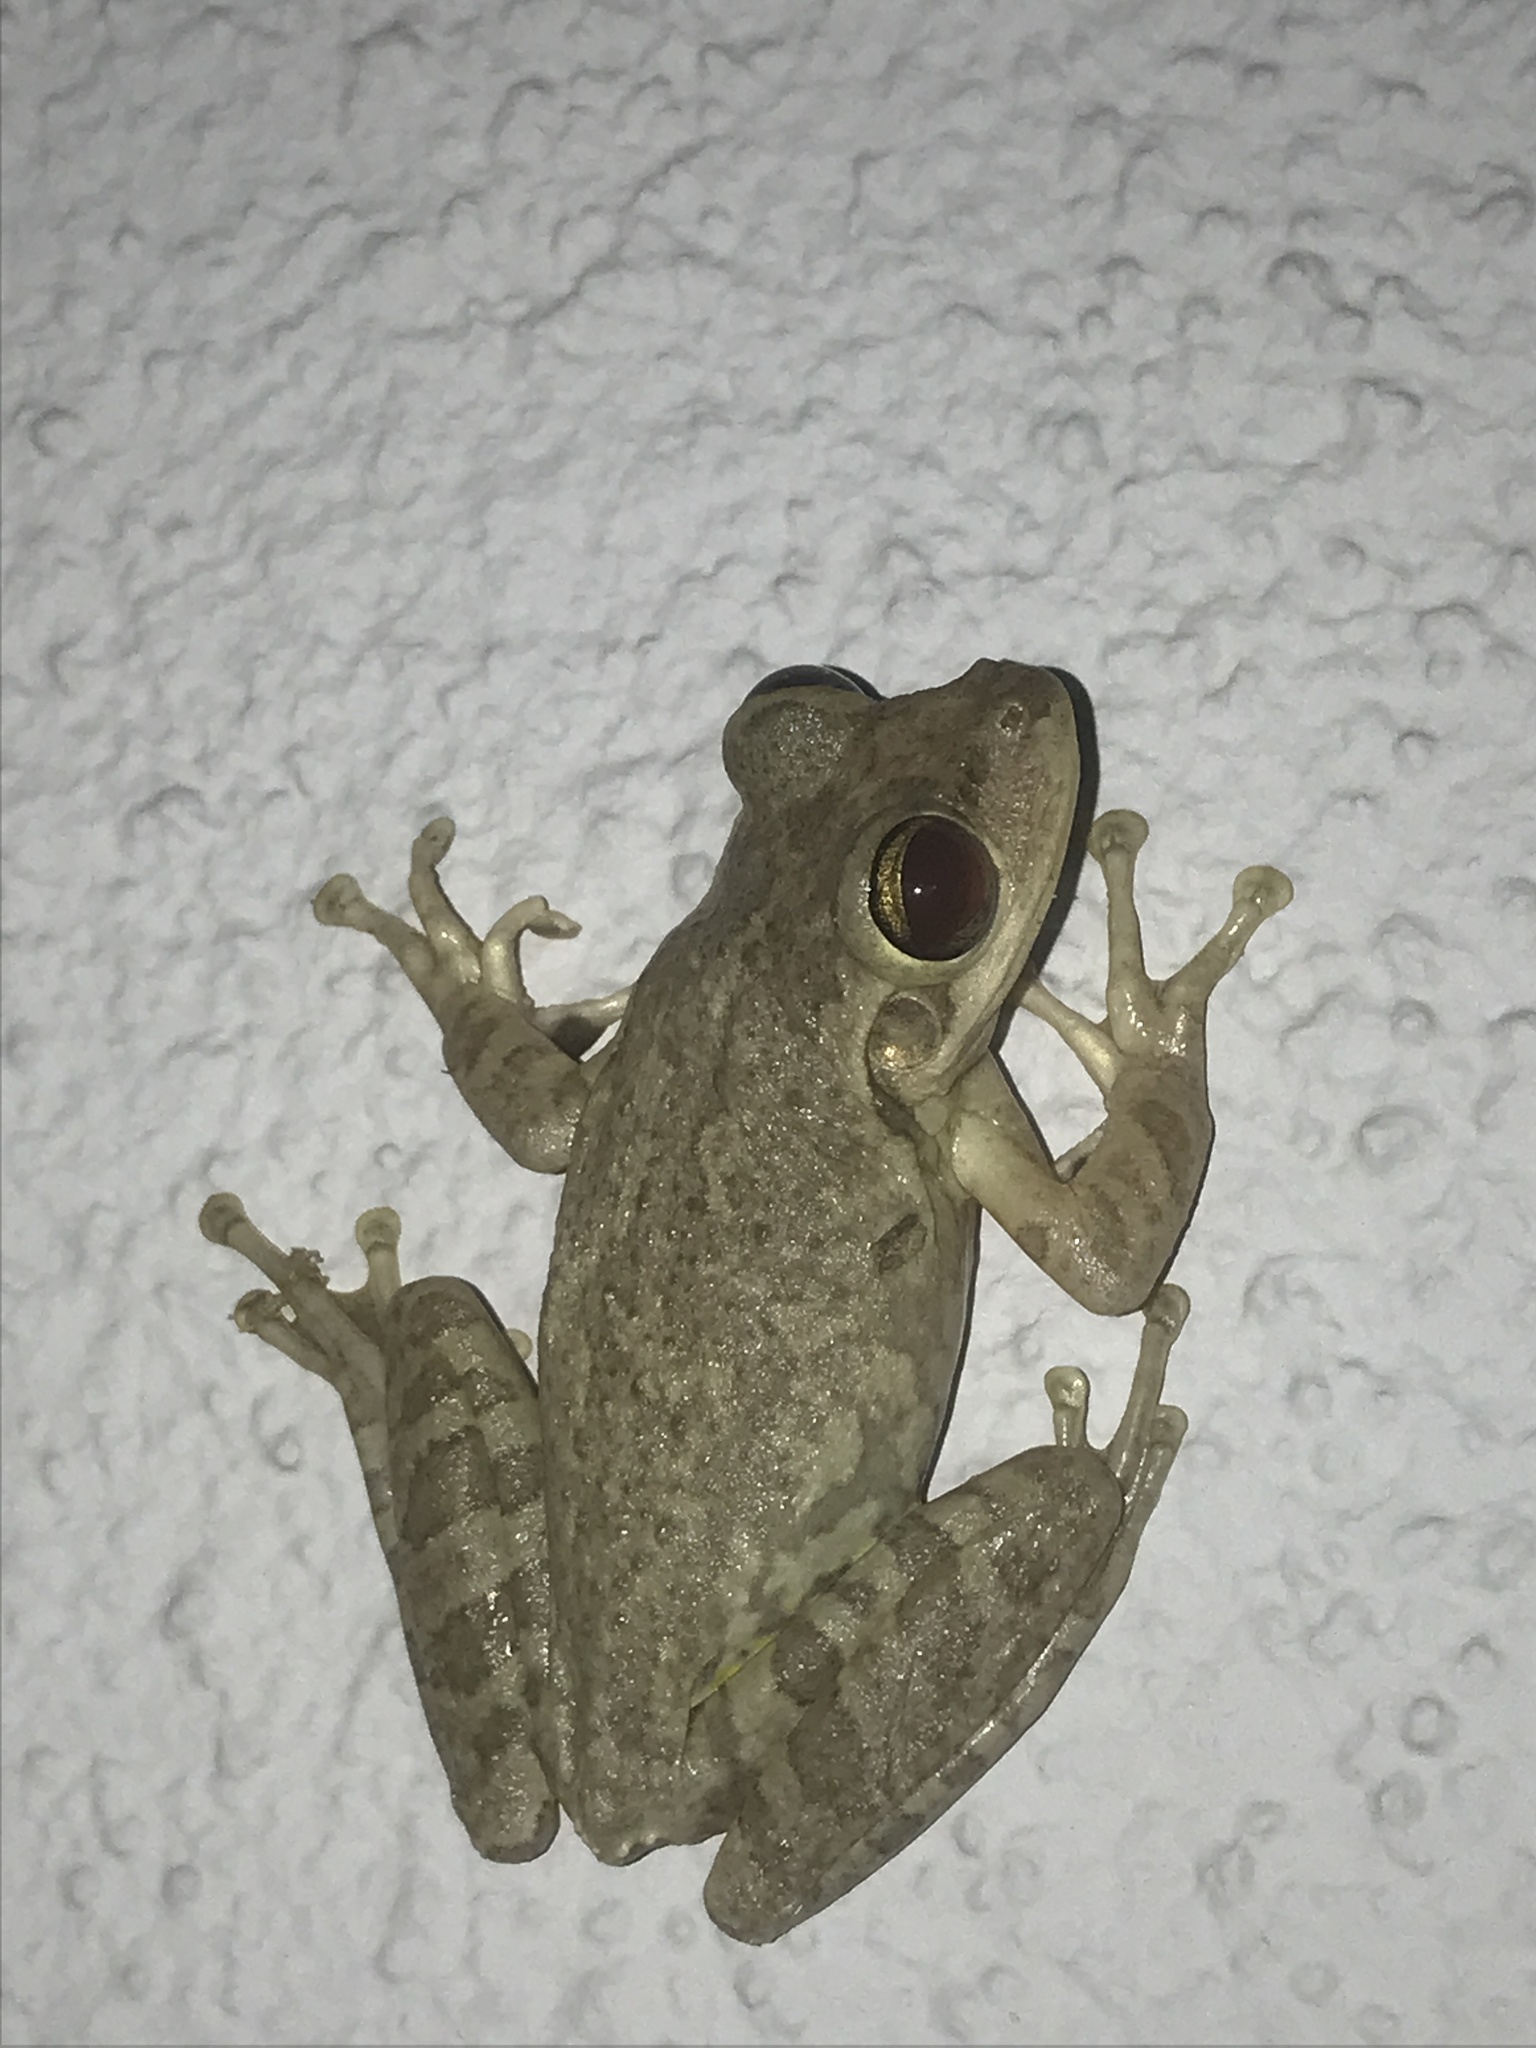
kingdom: Animalia
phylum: Chordata
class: Amphibia
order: Anura
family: Hylidae
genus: Osteopilus
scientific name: Osteopilus septentrionalis
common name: Cuban treefrog
